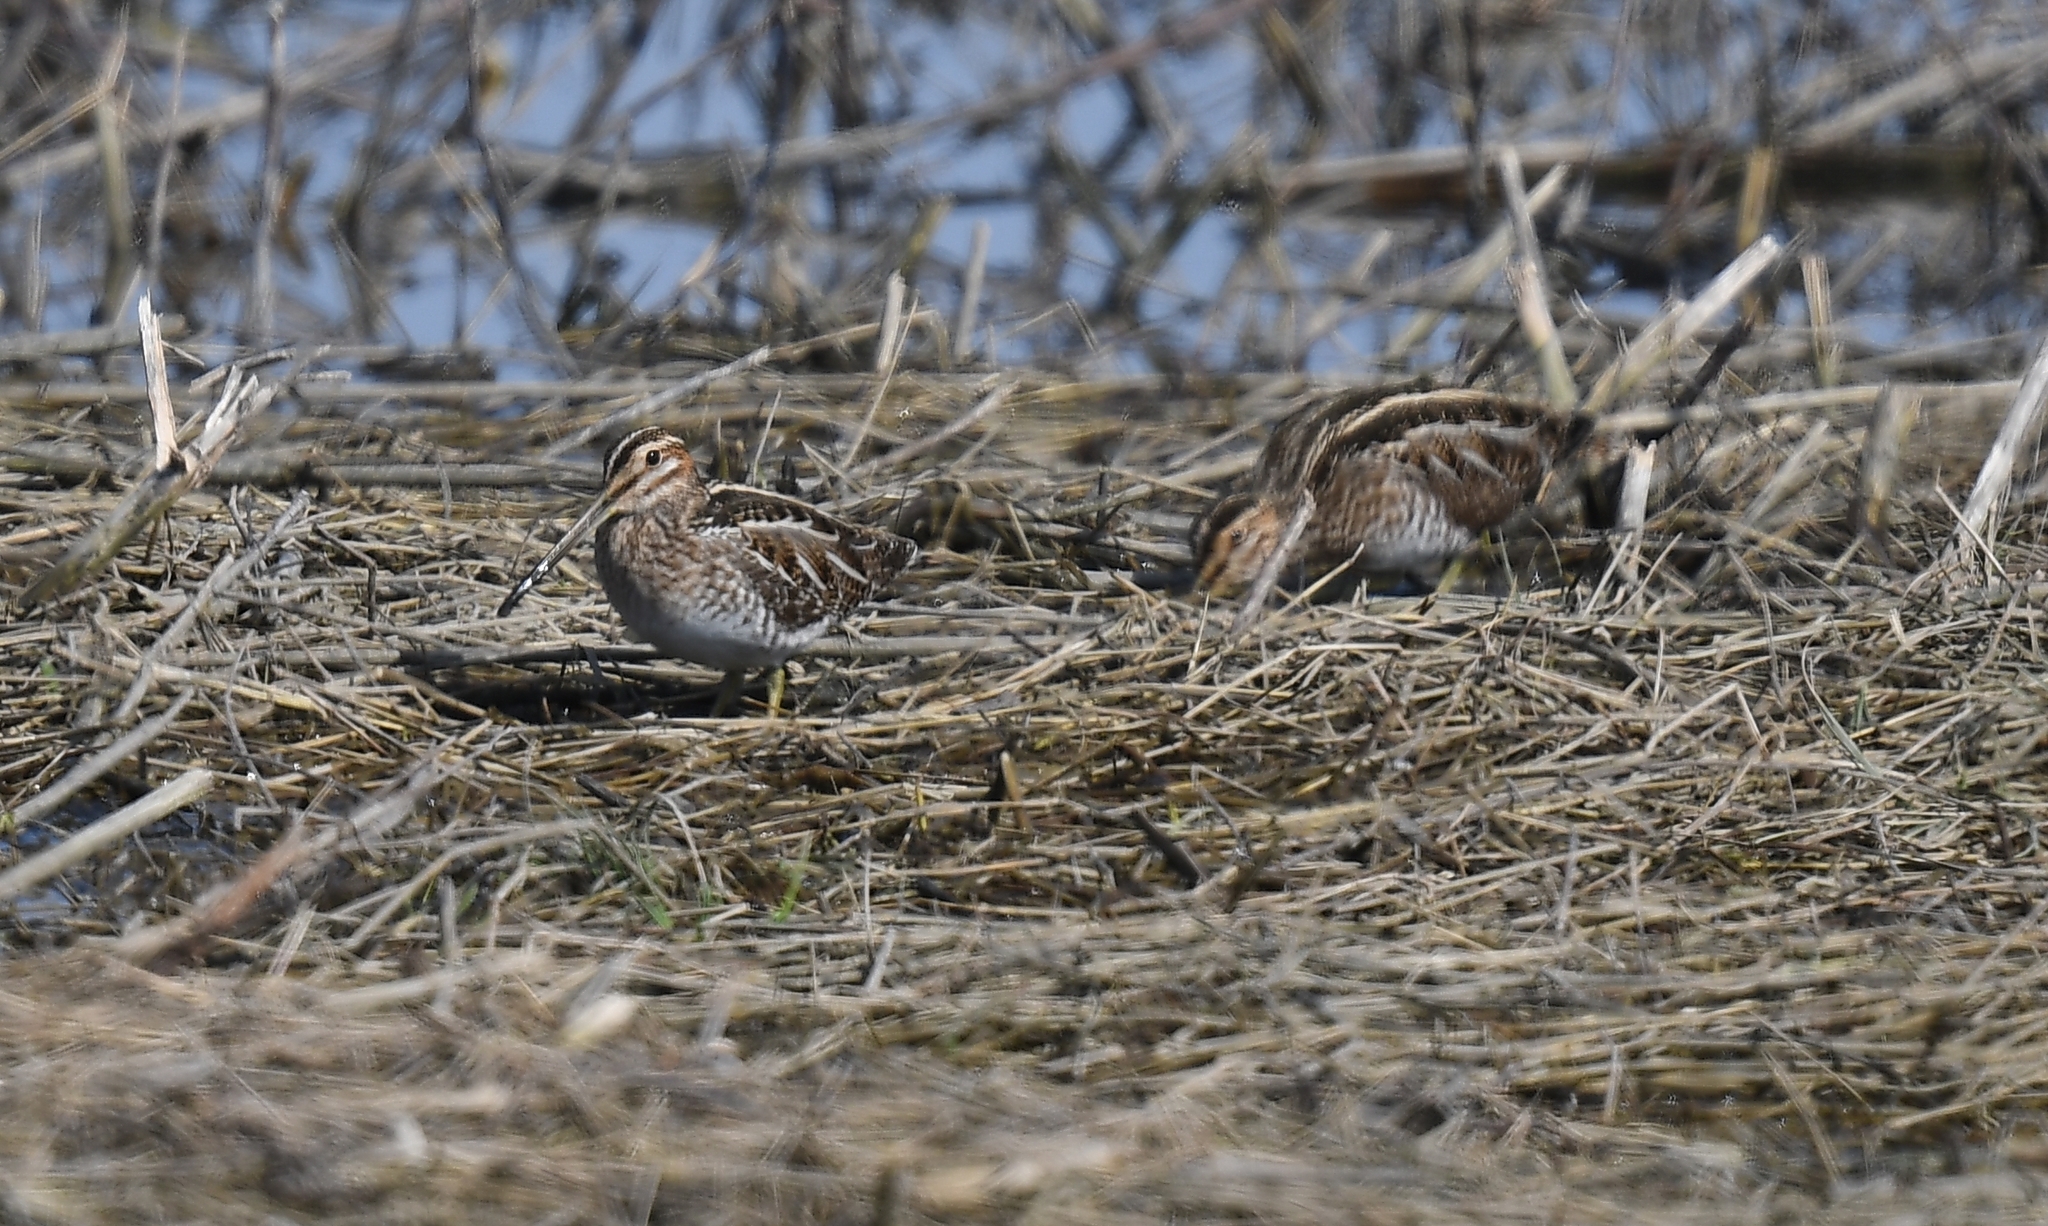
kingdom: Animalia
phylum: Chordata
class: Aves
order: Charadriiformes
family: Scolopacidae
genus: Gallinago
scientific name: Gallinago delicata
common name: Wilson's snipe
